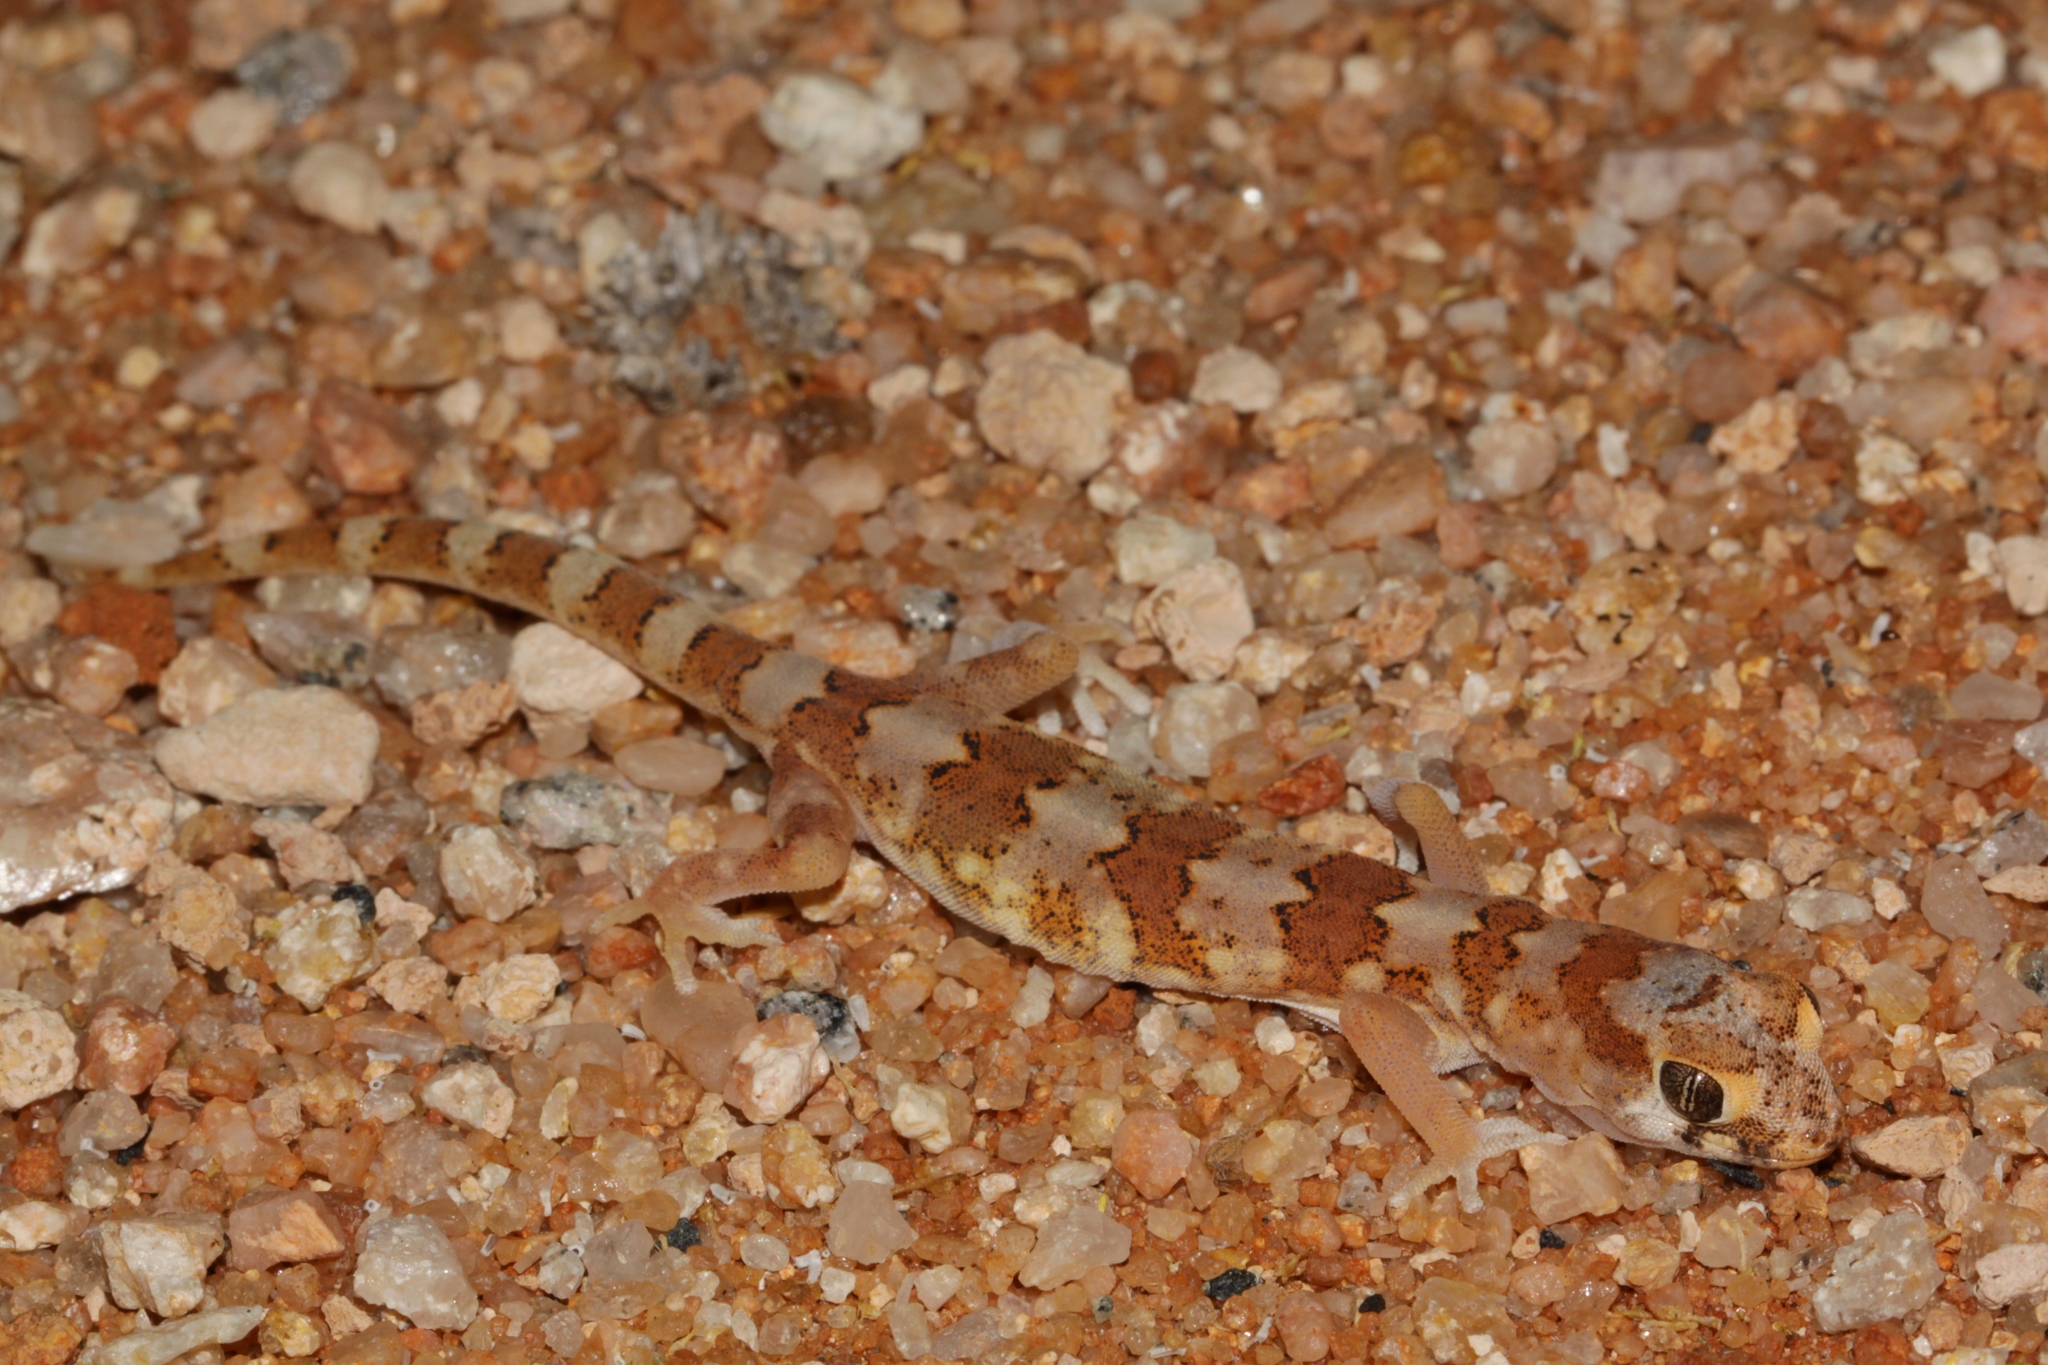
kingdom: Animalia
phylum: Chordata
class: Squamata
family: Gekkonidae
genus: Pachydactylus
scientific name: Pachydactylus latirostris
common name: Quartz gecko
